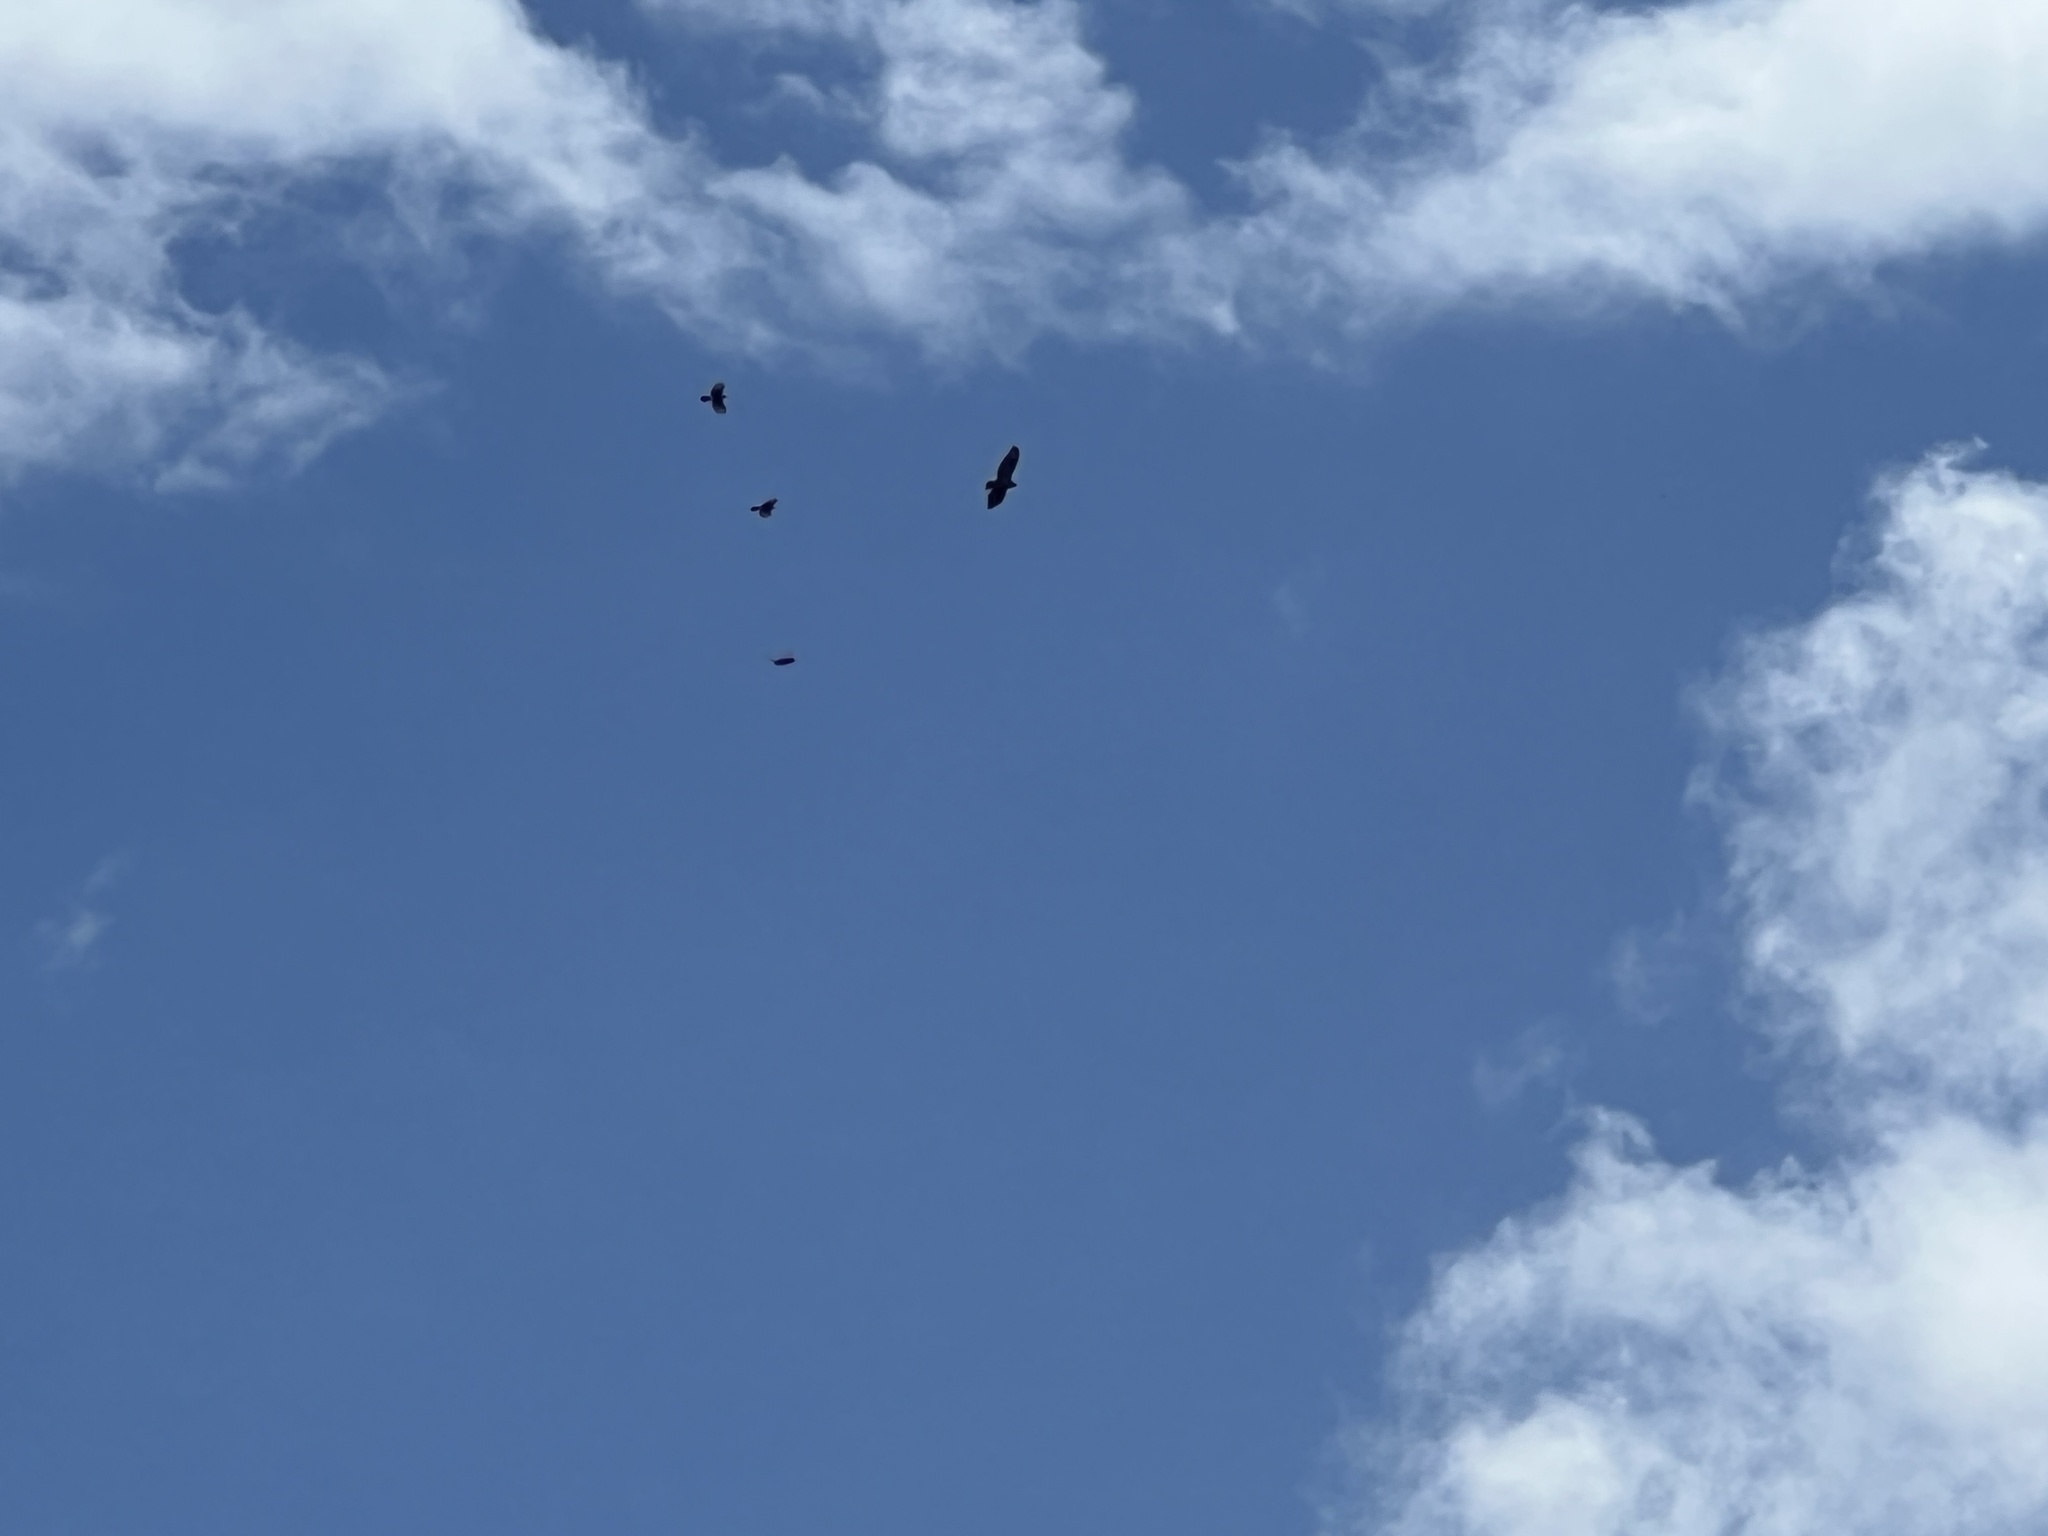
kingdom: Animalia
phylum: Chordata
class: Aves
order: Accipitriformes
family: Accipitridae
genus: Buteo
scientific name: Buteo buteo
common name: Common buzzard
